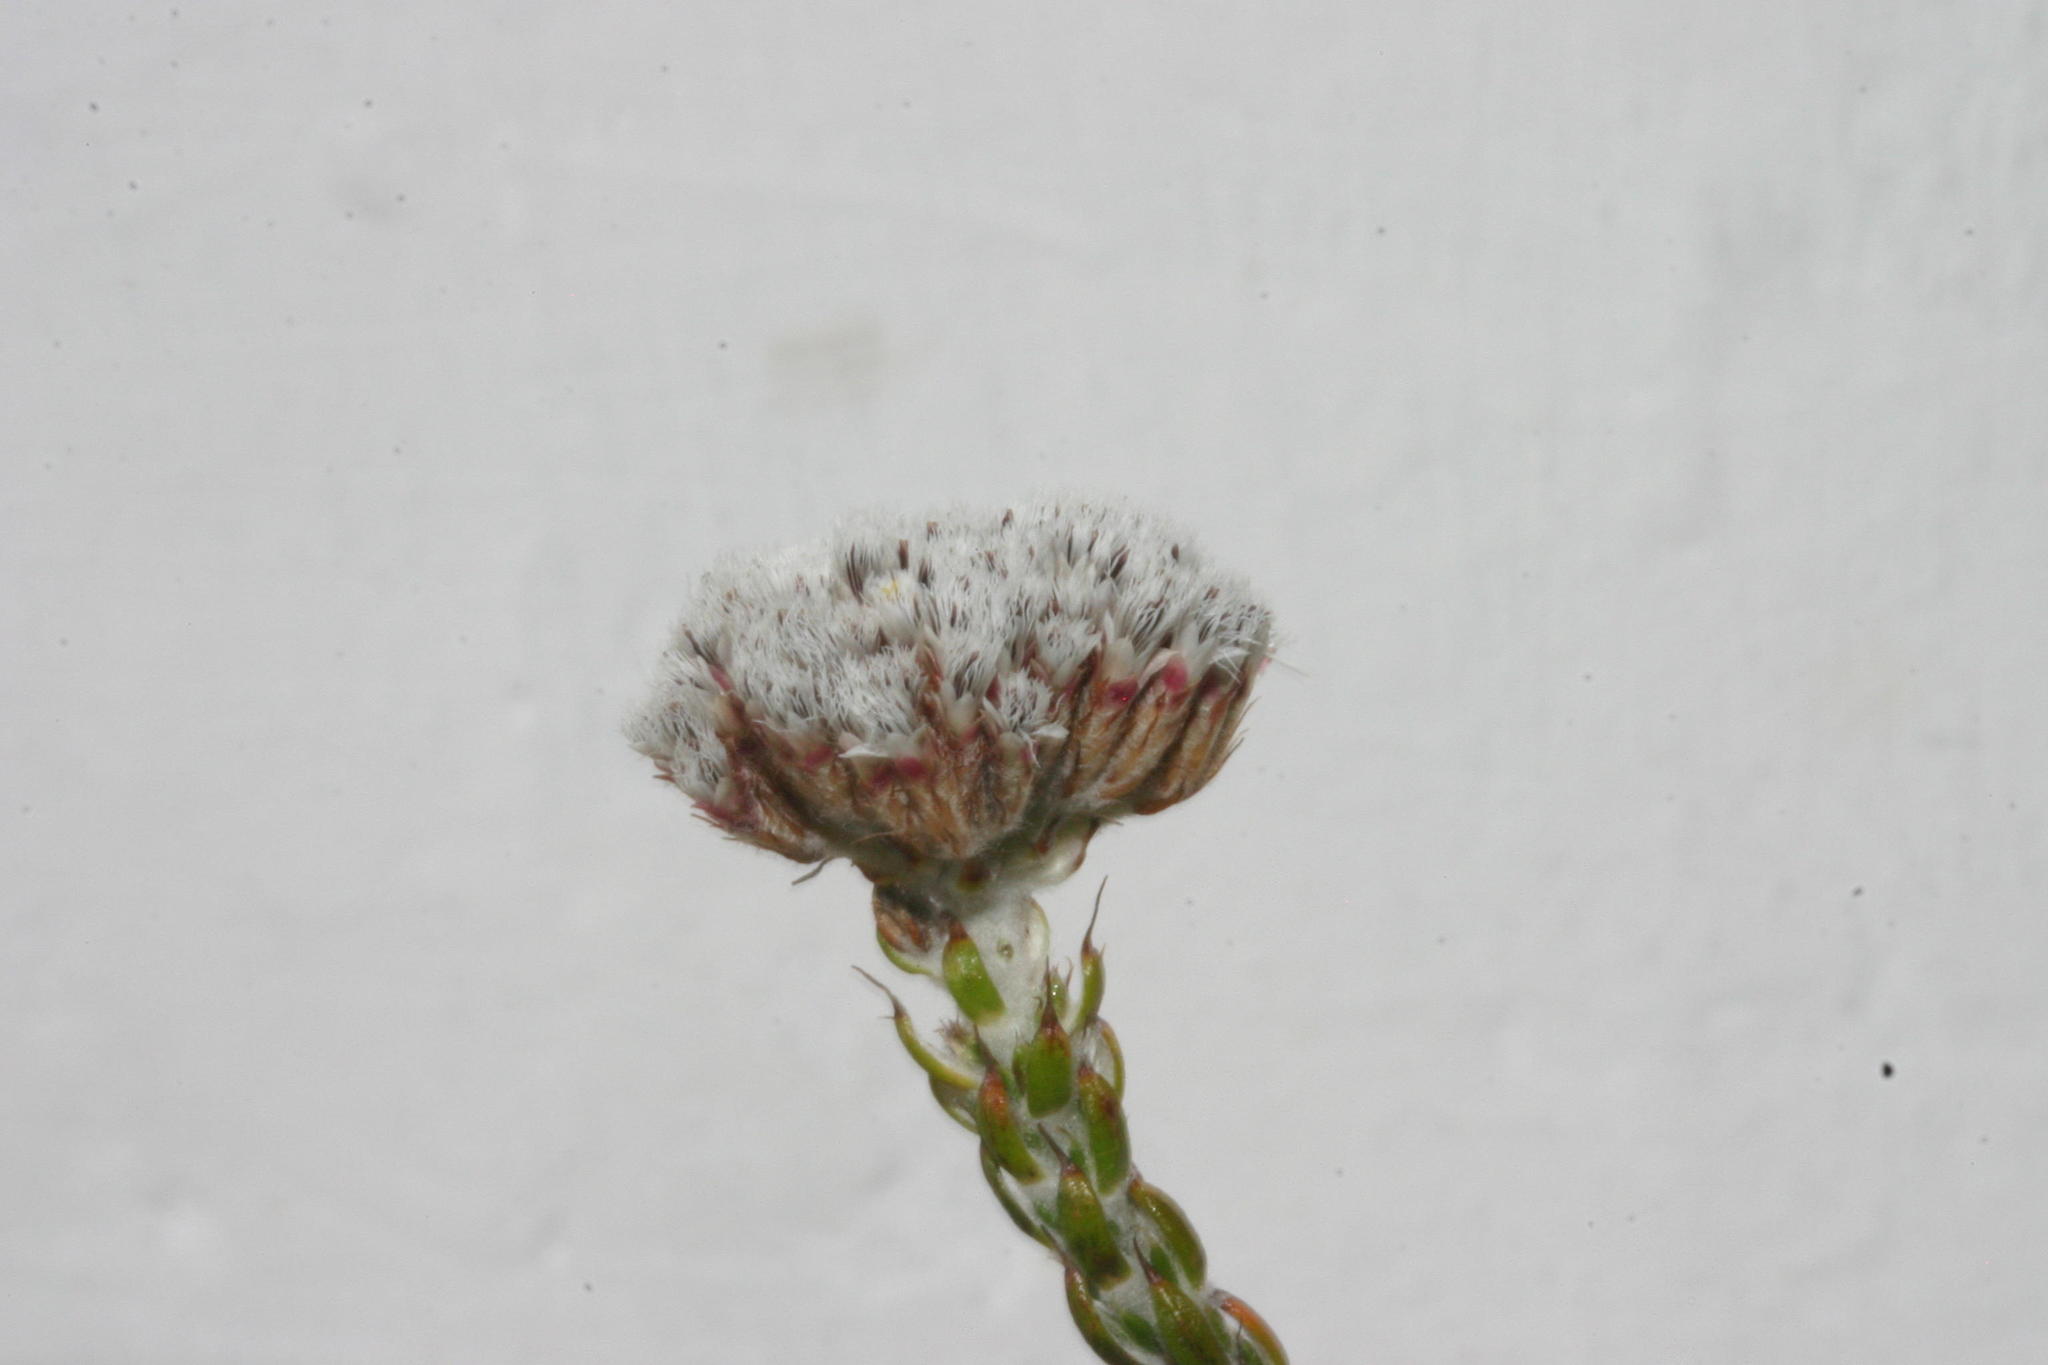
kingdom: Plantae
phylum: Tracheophyta
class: Magnoliopsida
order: Asterales
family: Asteraceae
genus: Metalasia
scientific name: Metalasia pungens
